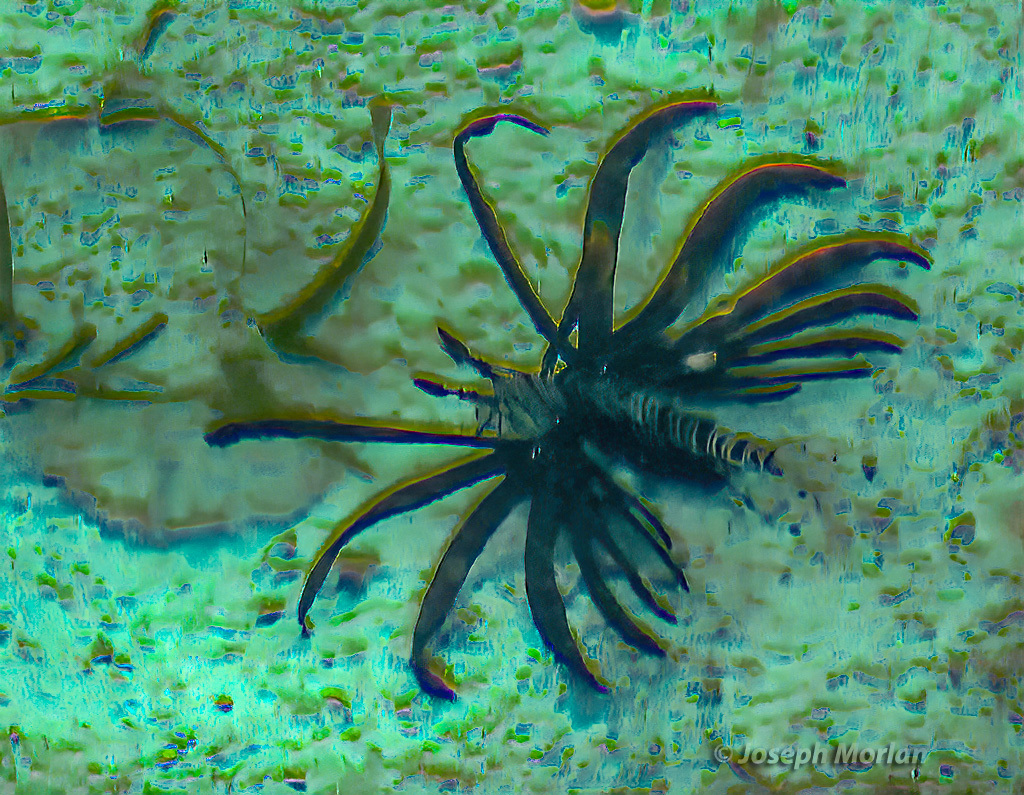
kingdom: Animalia
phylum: Chordata
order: Scorpaeniformes
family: Scorpaenidae
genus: Pterois
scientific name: Pterois volitans
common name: Lionfish
